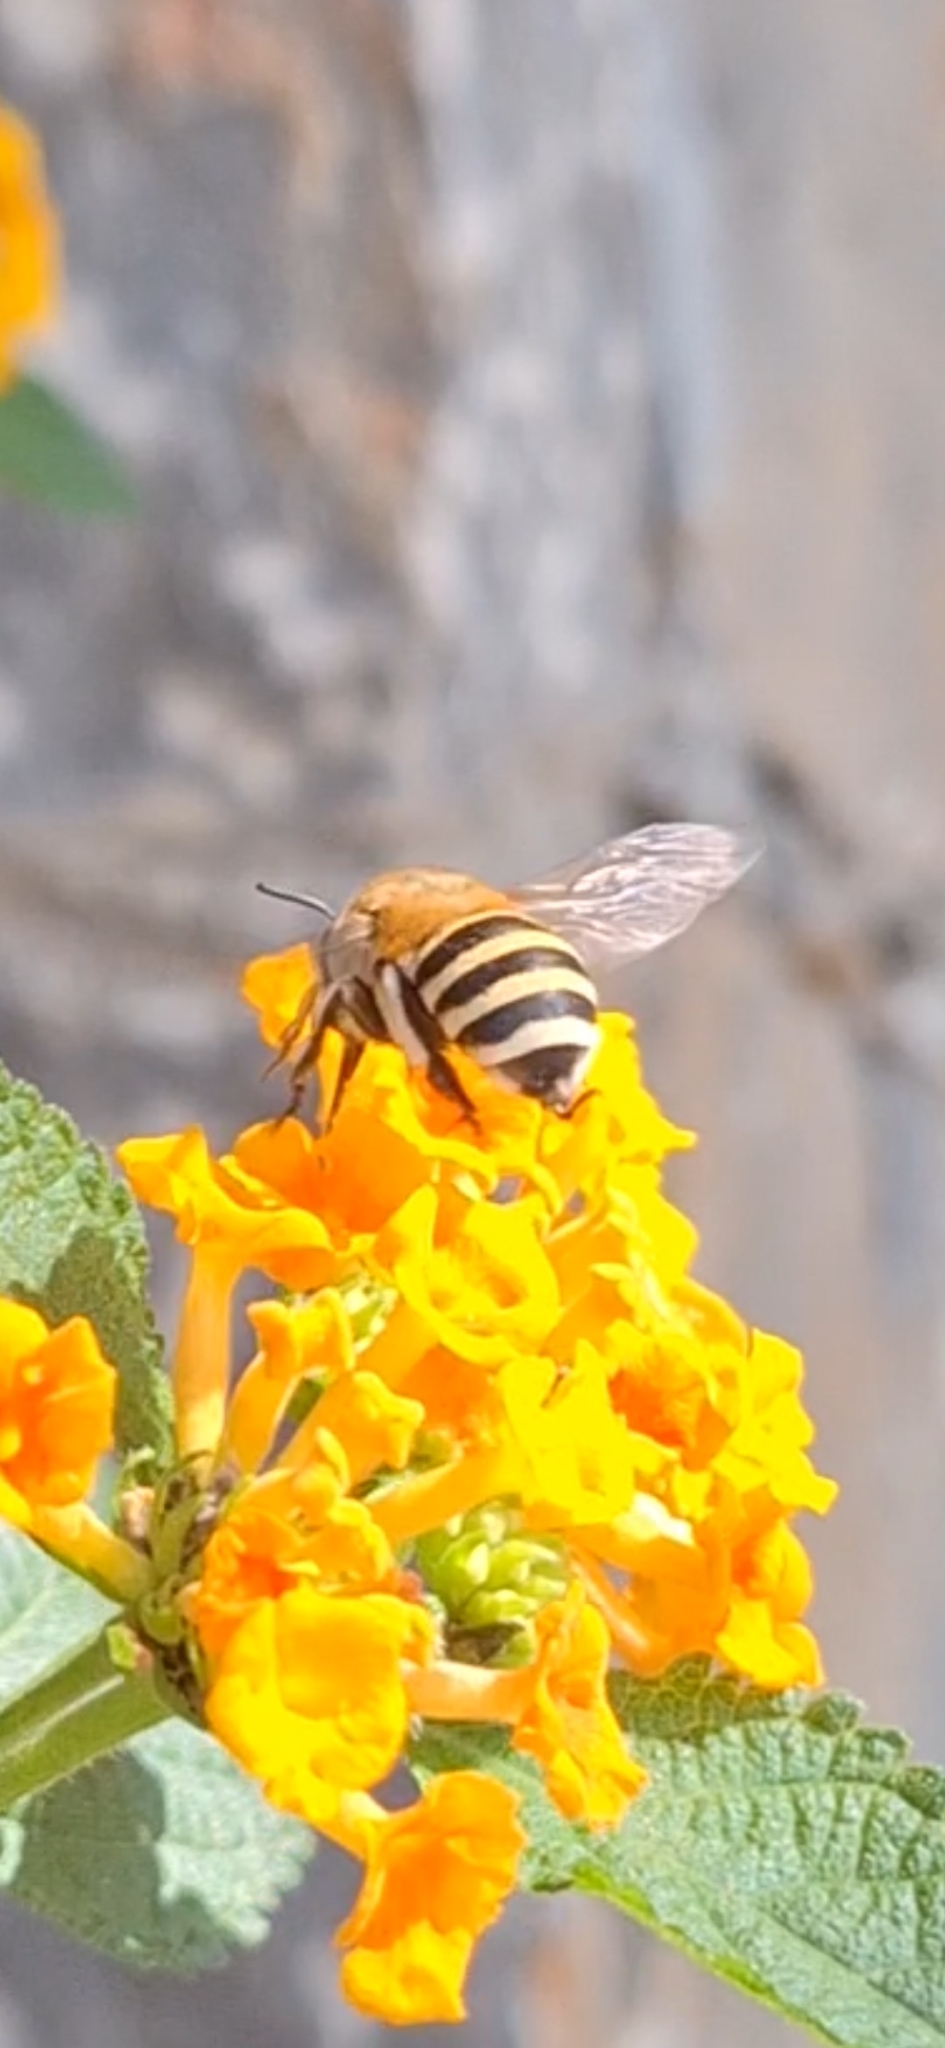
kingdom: Animalia
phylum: Arthropoda
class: Insecta
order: Hymenoptera
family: Apidae
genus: Amegilla
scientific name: Amegilla quadrifasciata
